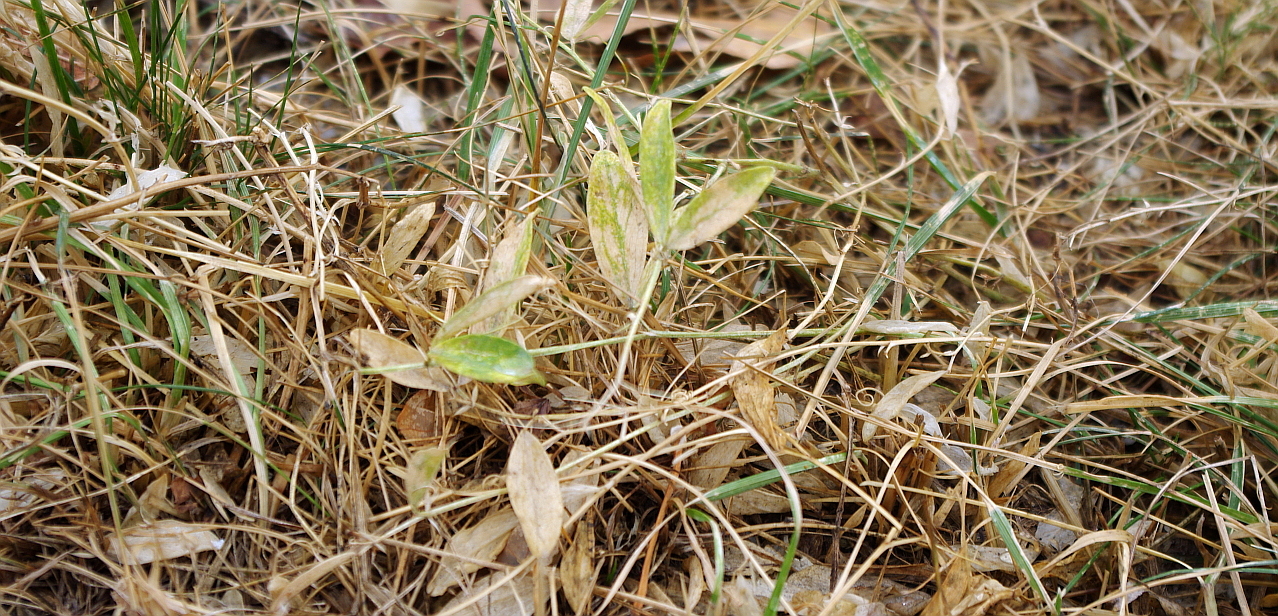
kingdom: Plantae
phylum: Tracheophyta
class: Magnoliopsida
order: Fabales
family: Fabaceae
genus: Lathyrus
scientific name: Lathyrus tuberosus
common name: Tuberous pea
